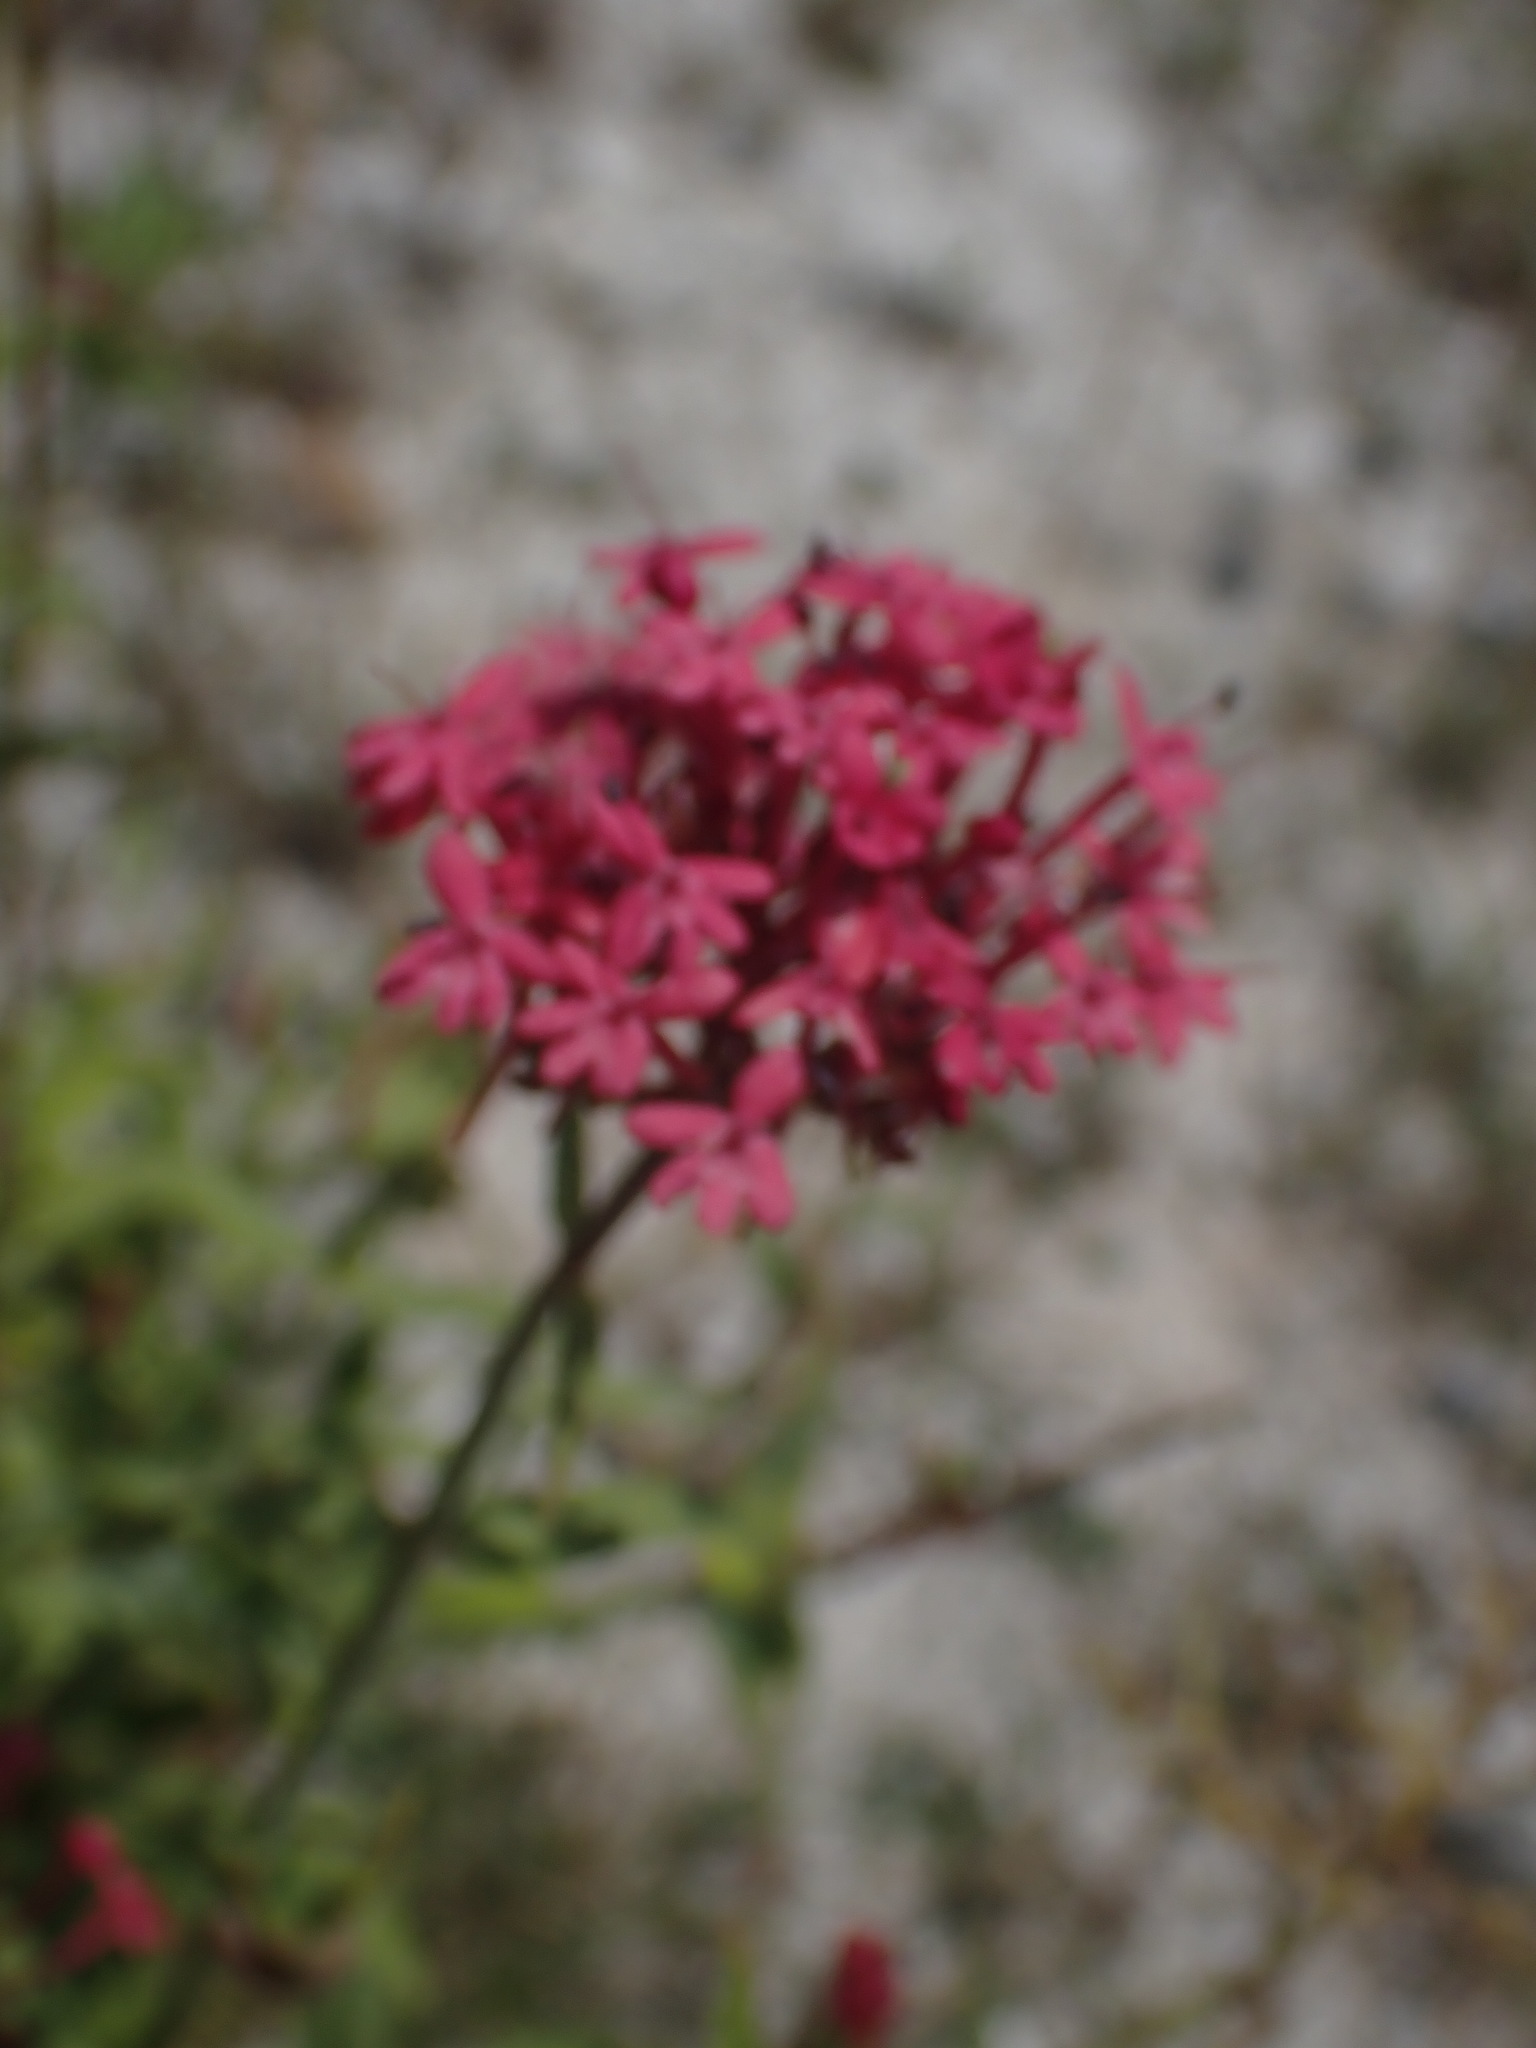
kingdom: Plantae
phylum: Tracheophyta
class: Magnoliopsida
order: Dipsacales
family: Caprifoliaceae
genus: Centranthus
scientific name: Centranthus ruber
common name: Red valerian
